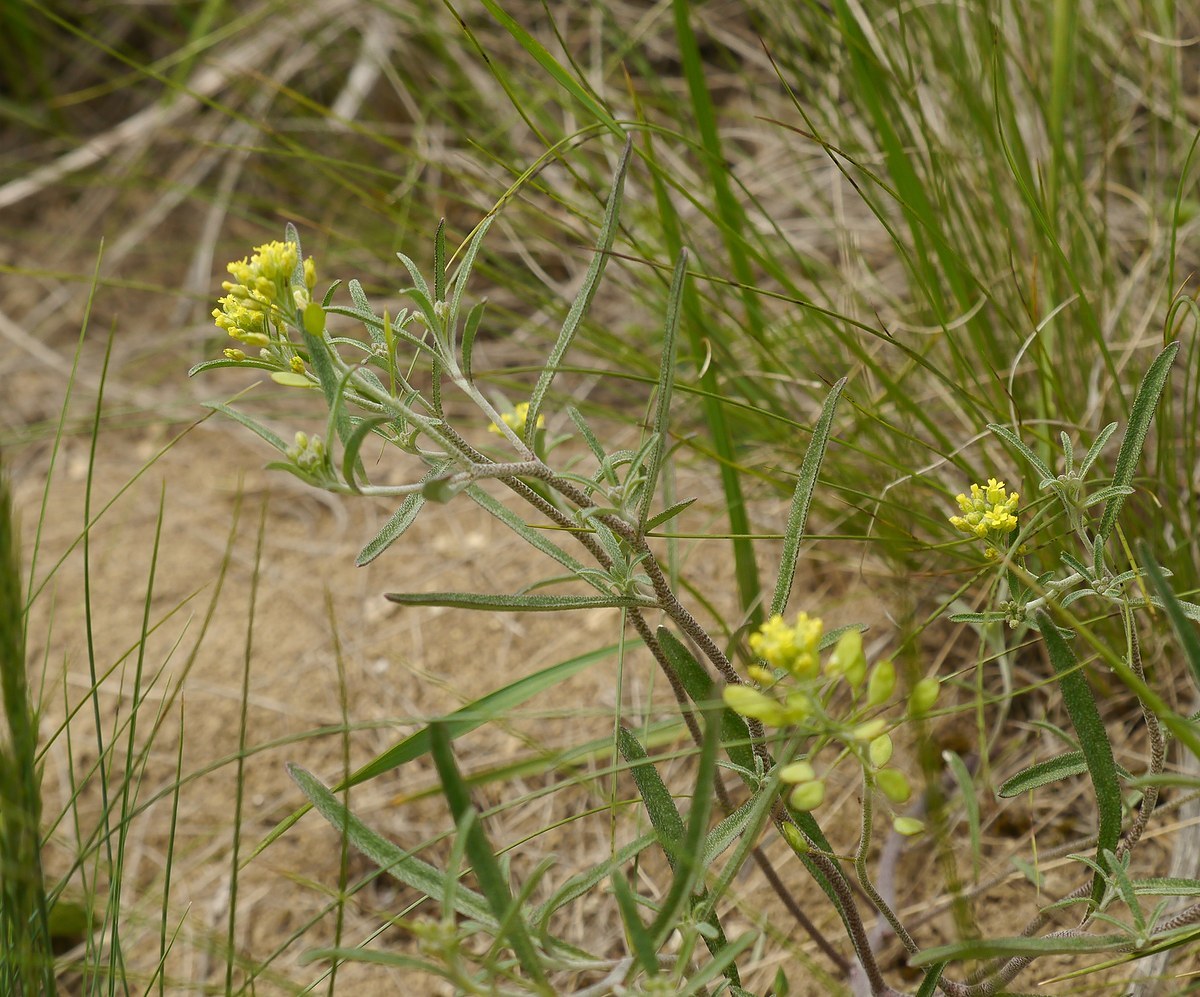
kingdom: Plantae
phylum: Tracheophyta
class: Magnoliopsida
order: Brassicales
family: Brassicaceae
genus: Meniocus
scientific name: Meniocus linifolius
